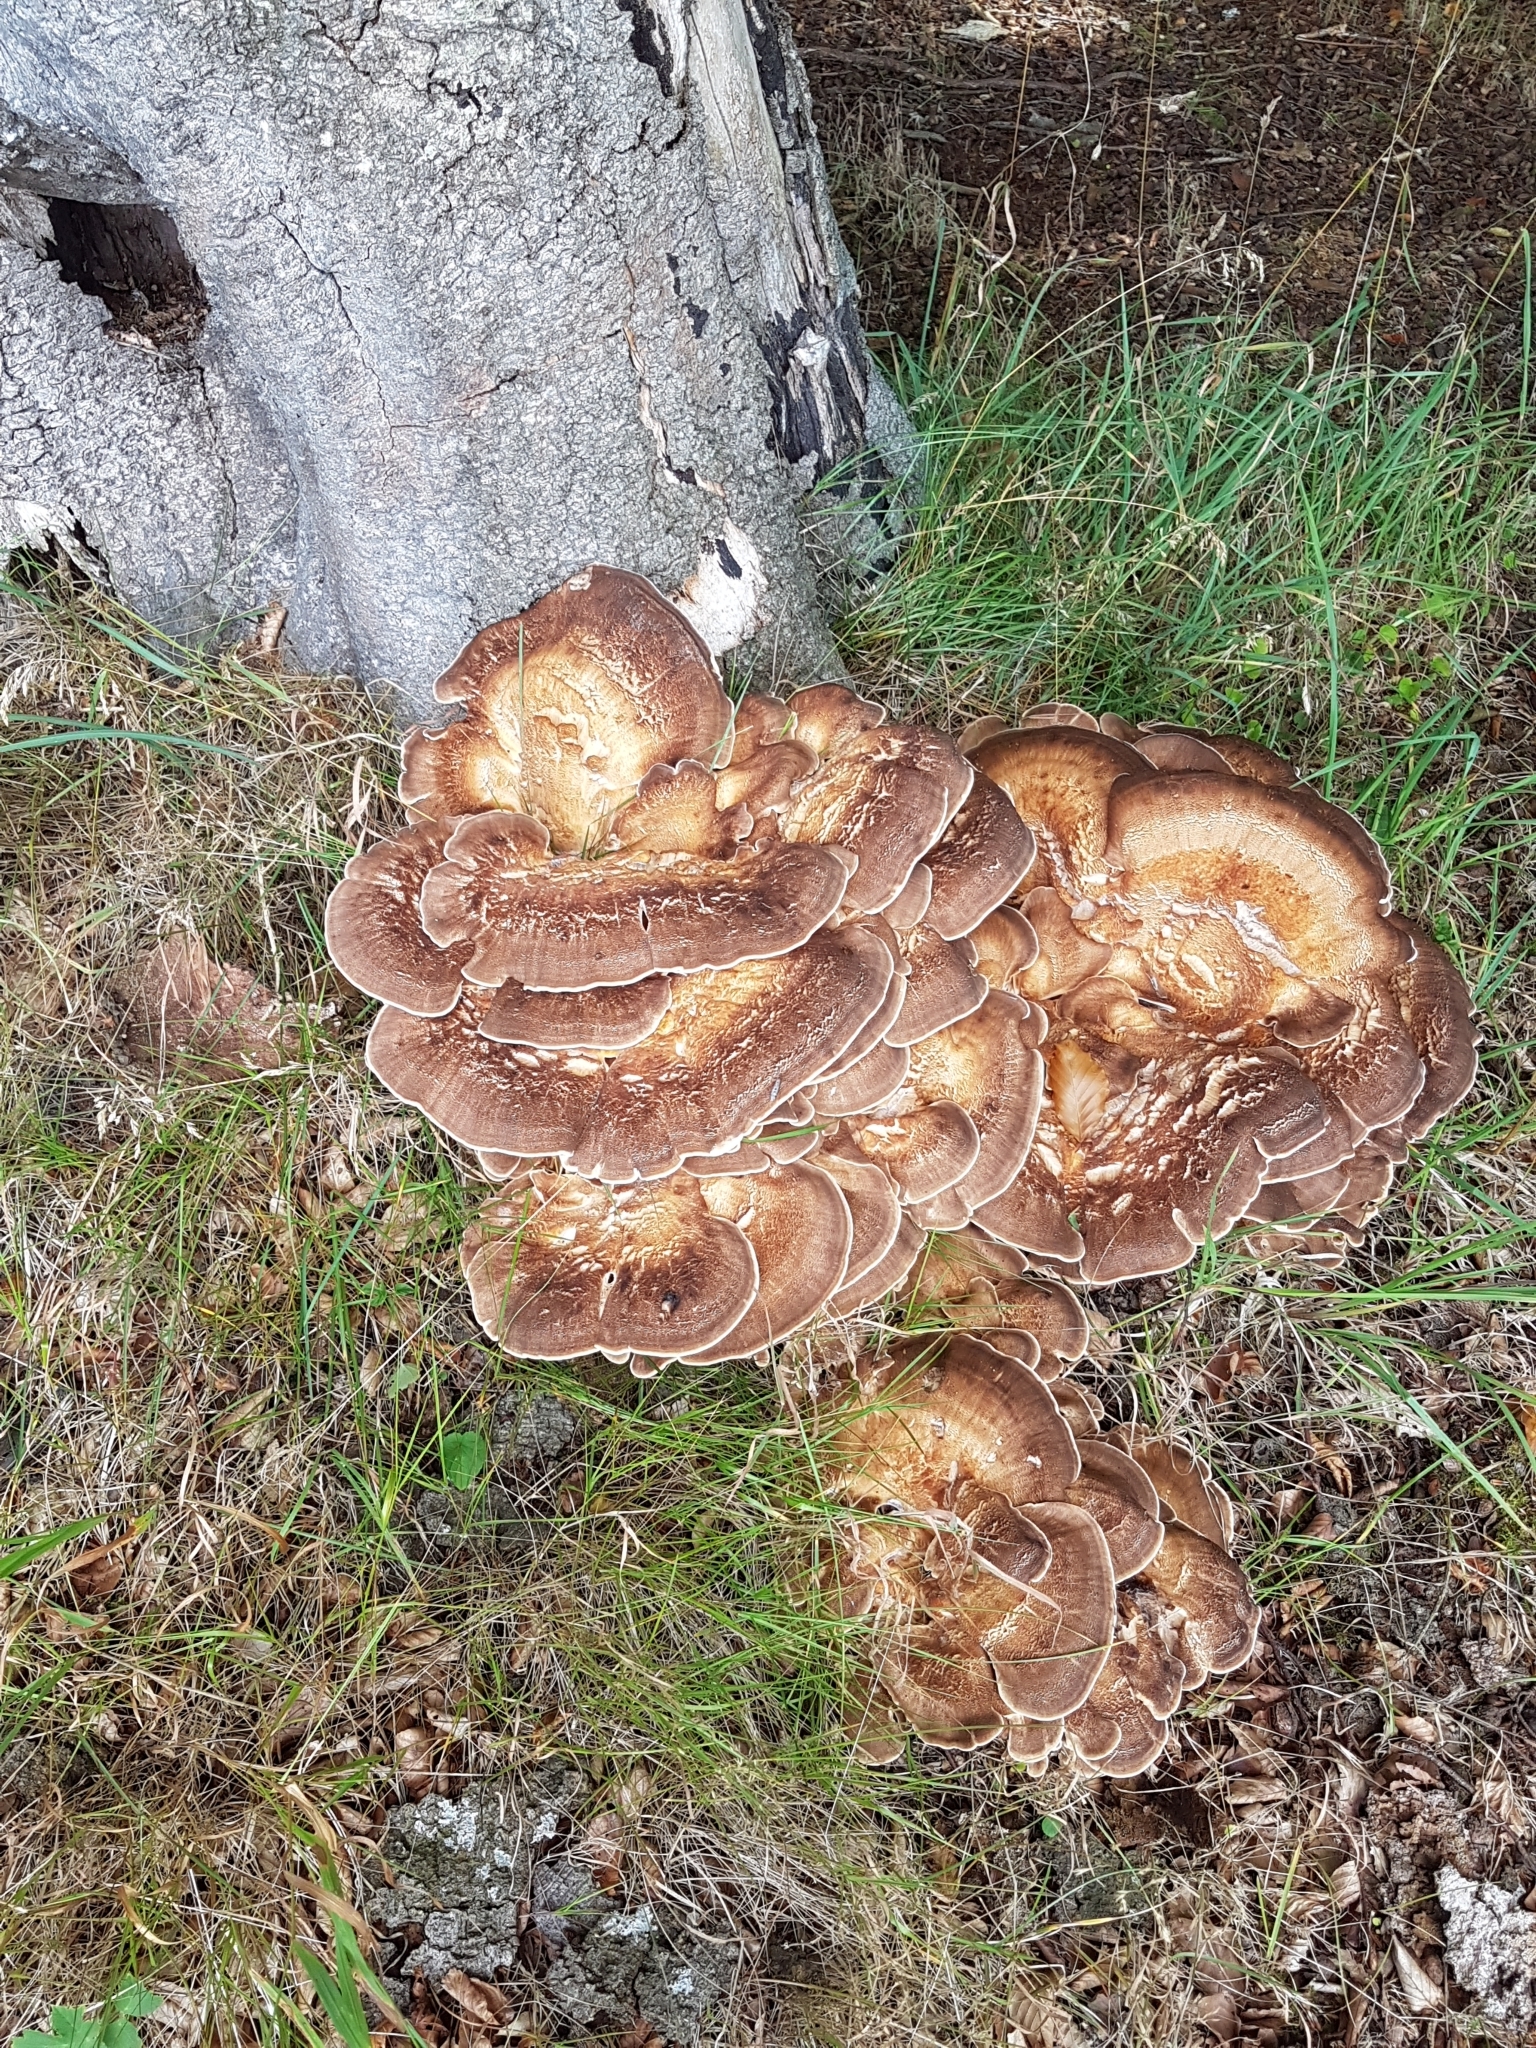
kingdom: Fungi
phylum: Basidiomycota
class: Agaricomycetes
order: Polyporales
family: Meripilaceae
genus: Meripilus
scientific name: Meripilus giganteus
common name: Giant polypore
